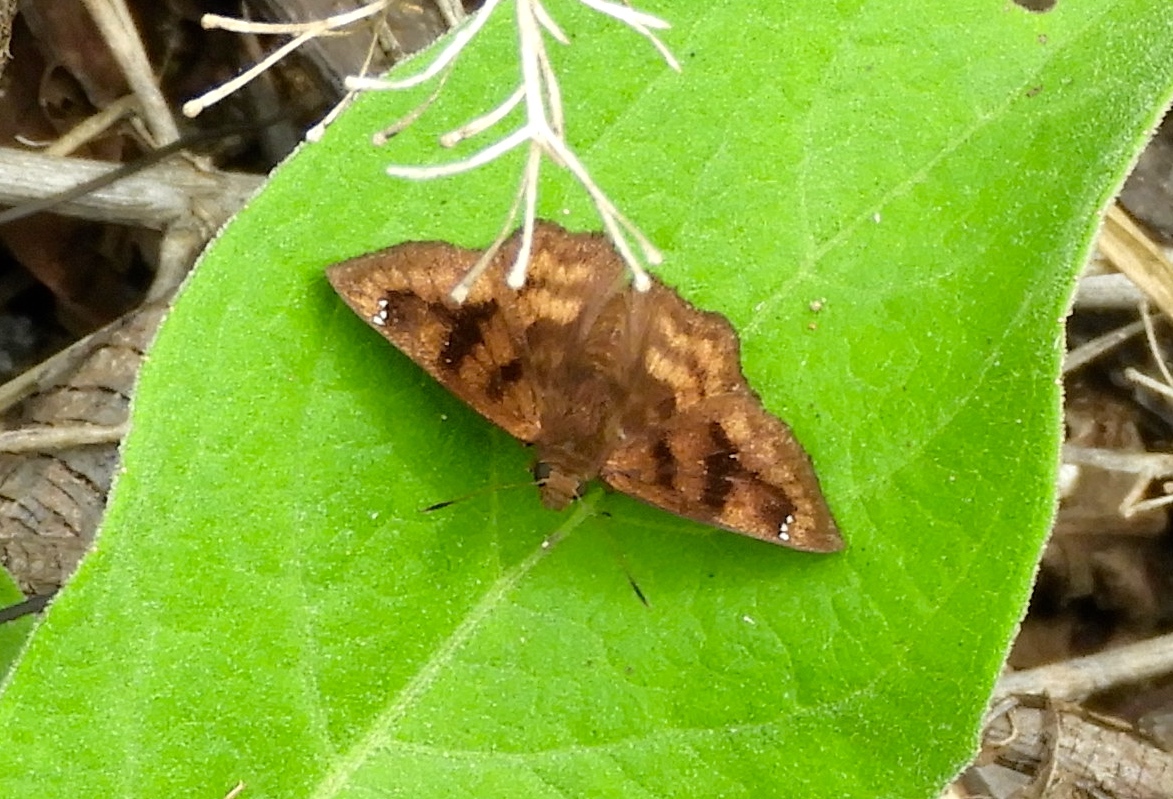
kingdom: Animalia
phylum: Arthropoda
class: Insecta
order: Lepidoptera
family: Hesperiidae
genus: Nisoniades
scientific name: Nisoniades
